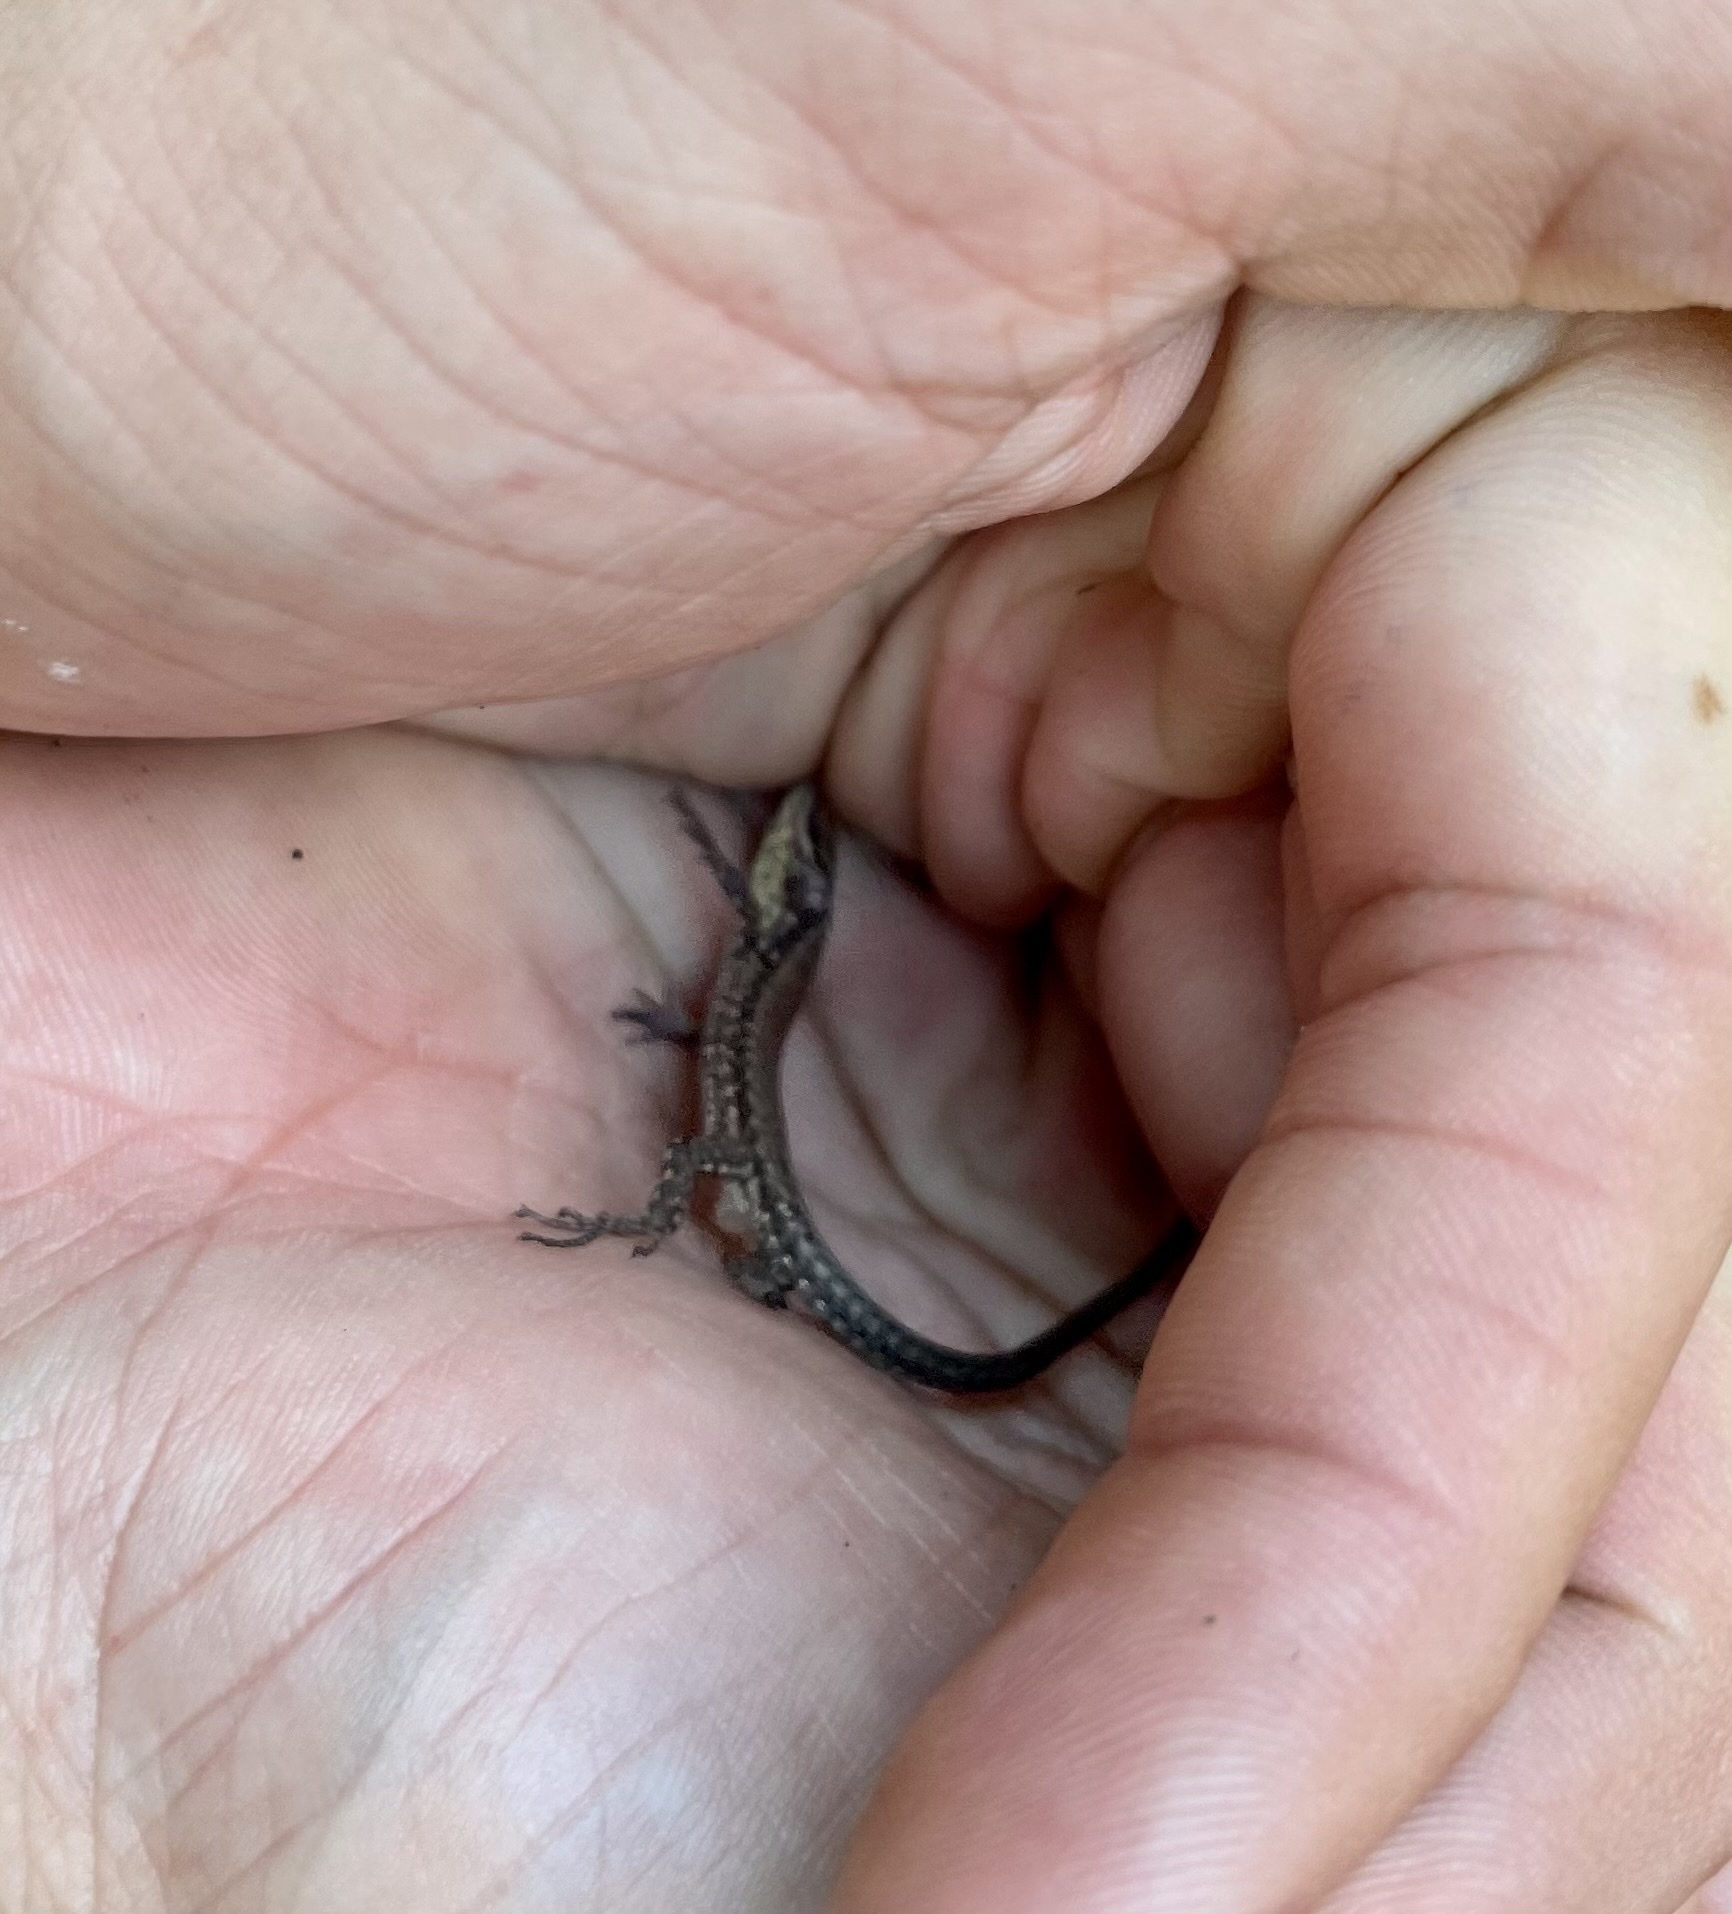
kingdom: Animalia
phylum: Chordata
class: Squamata
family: Lacertidae
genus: Podarcis
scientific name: Podarcis muralis
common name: Common wall lizard
